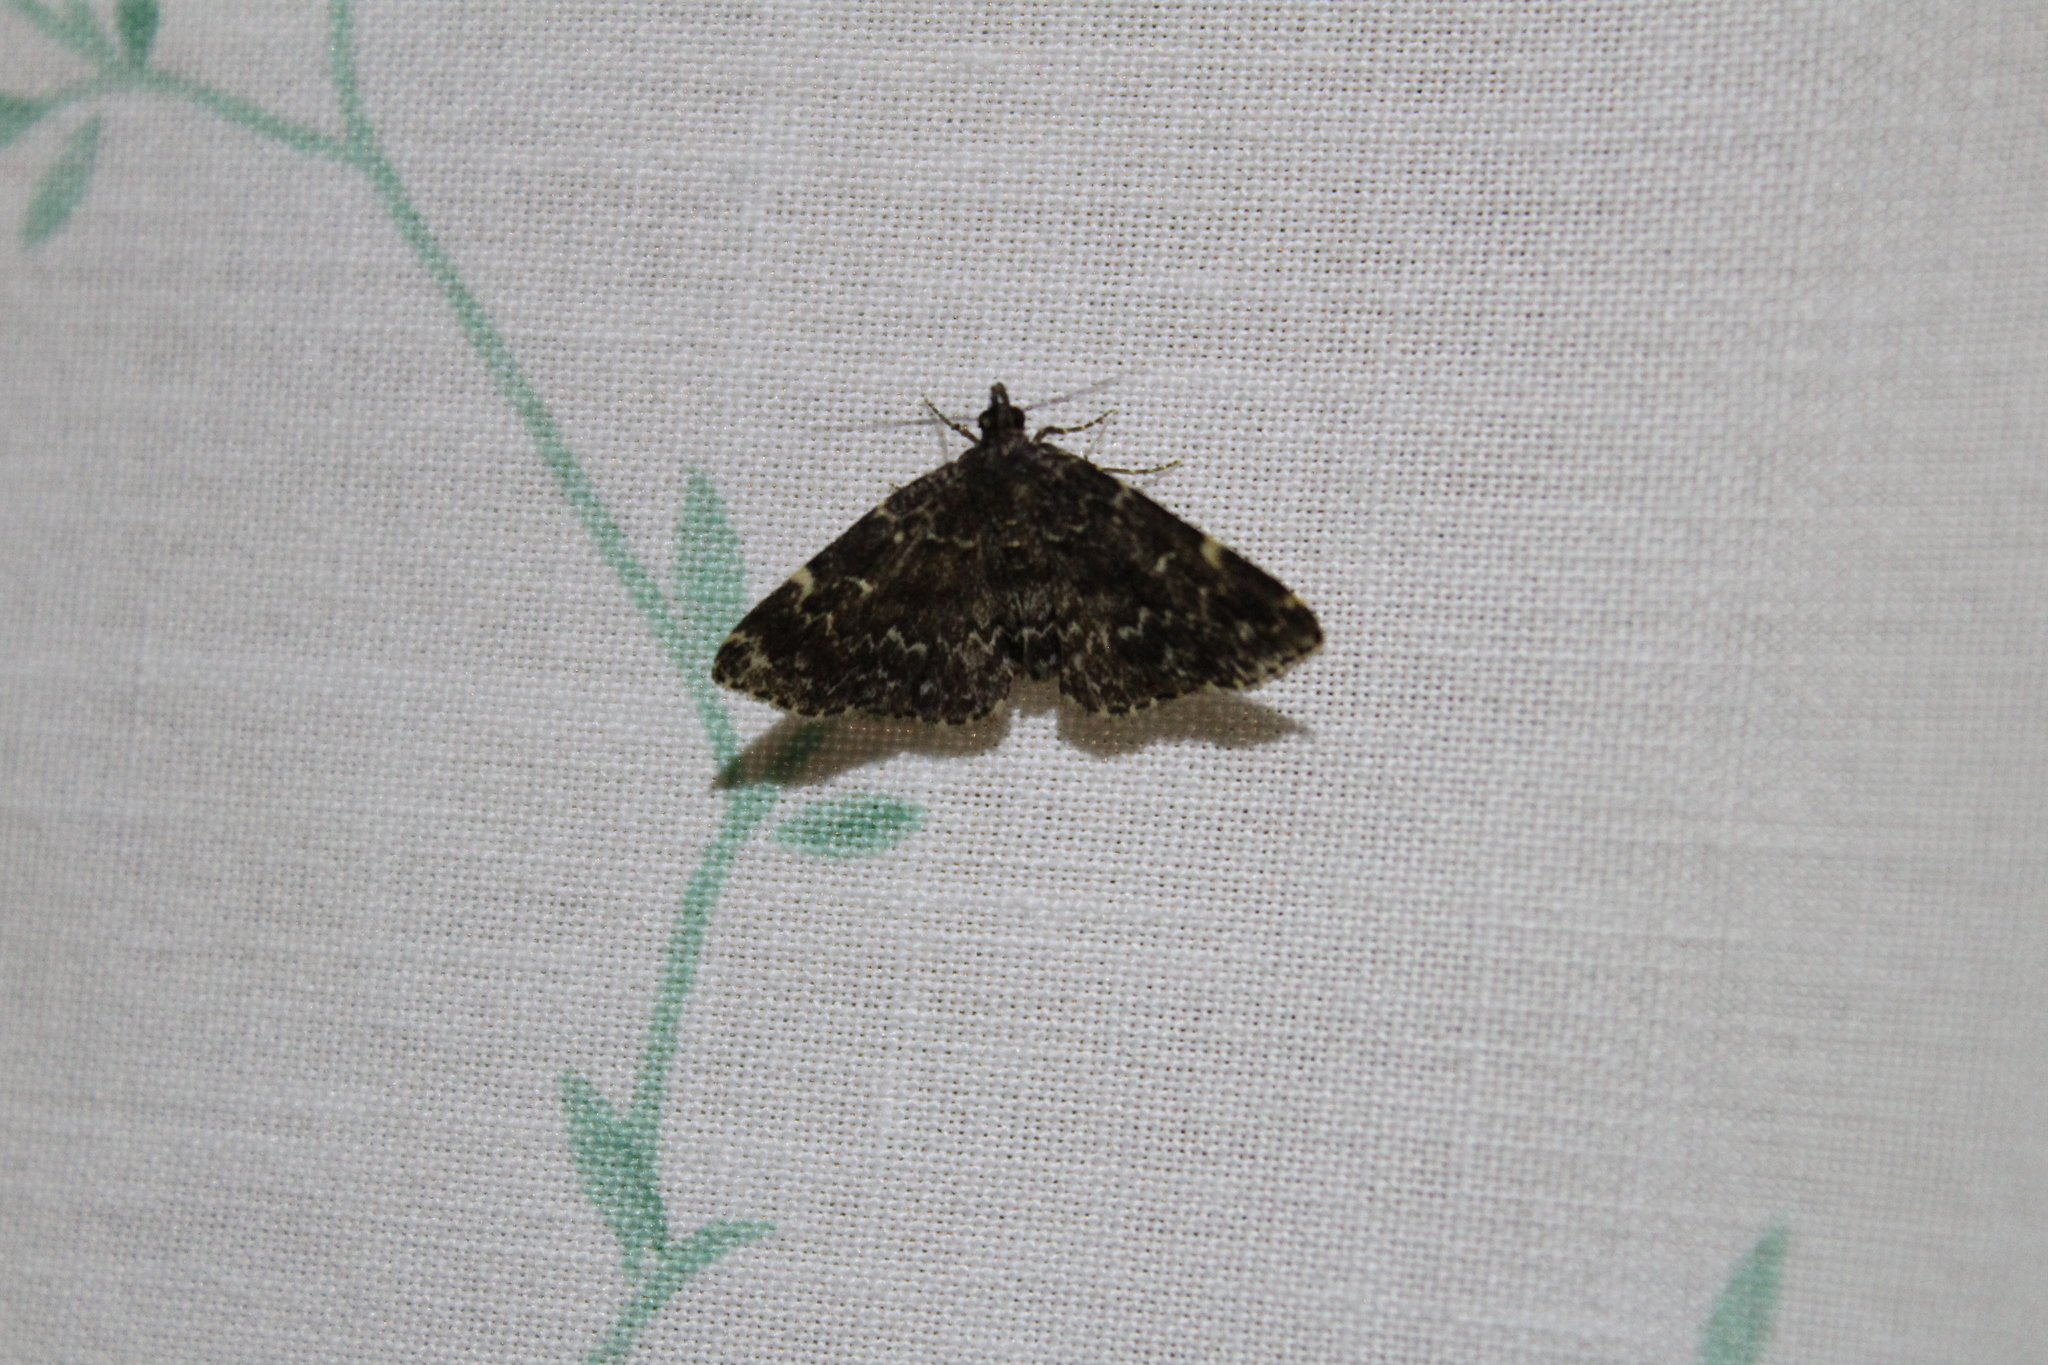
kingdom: Animalia
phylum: Arthropoda
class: Insecta
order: Lepidoptera
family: Erebidae
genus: Idia
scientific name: Idia scobialis
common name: Smoky idia moth
